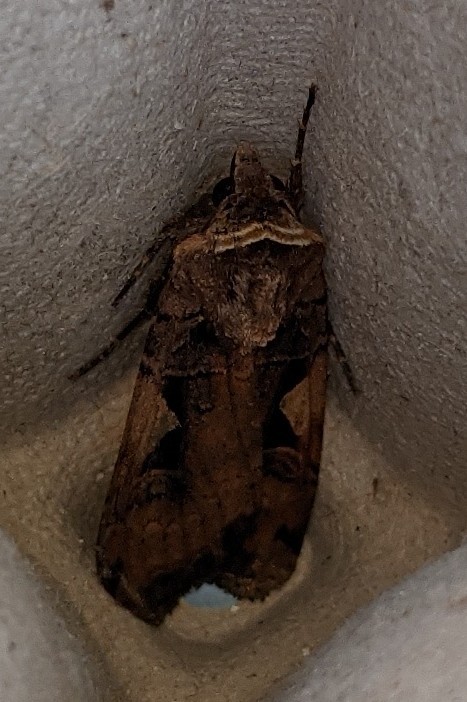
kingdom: Animalia
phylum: Arthropoda
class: Insecta
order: Lepidoptera
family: Noctuidae
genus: Xestia
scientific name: Xestia
